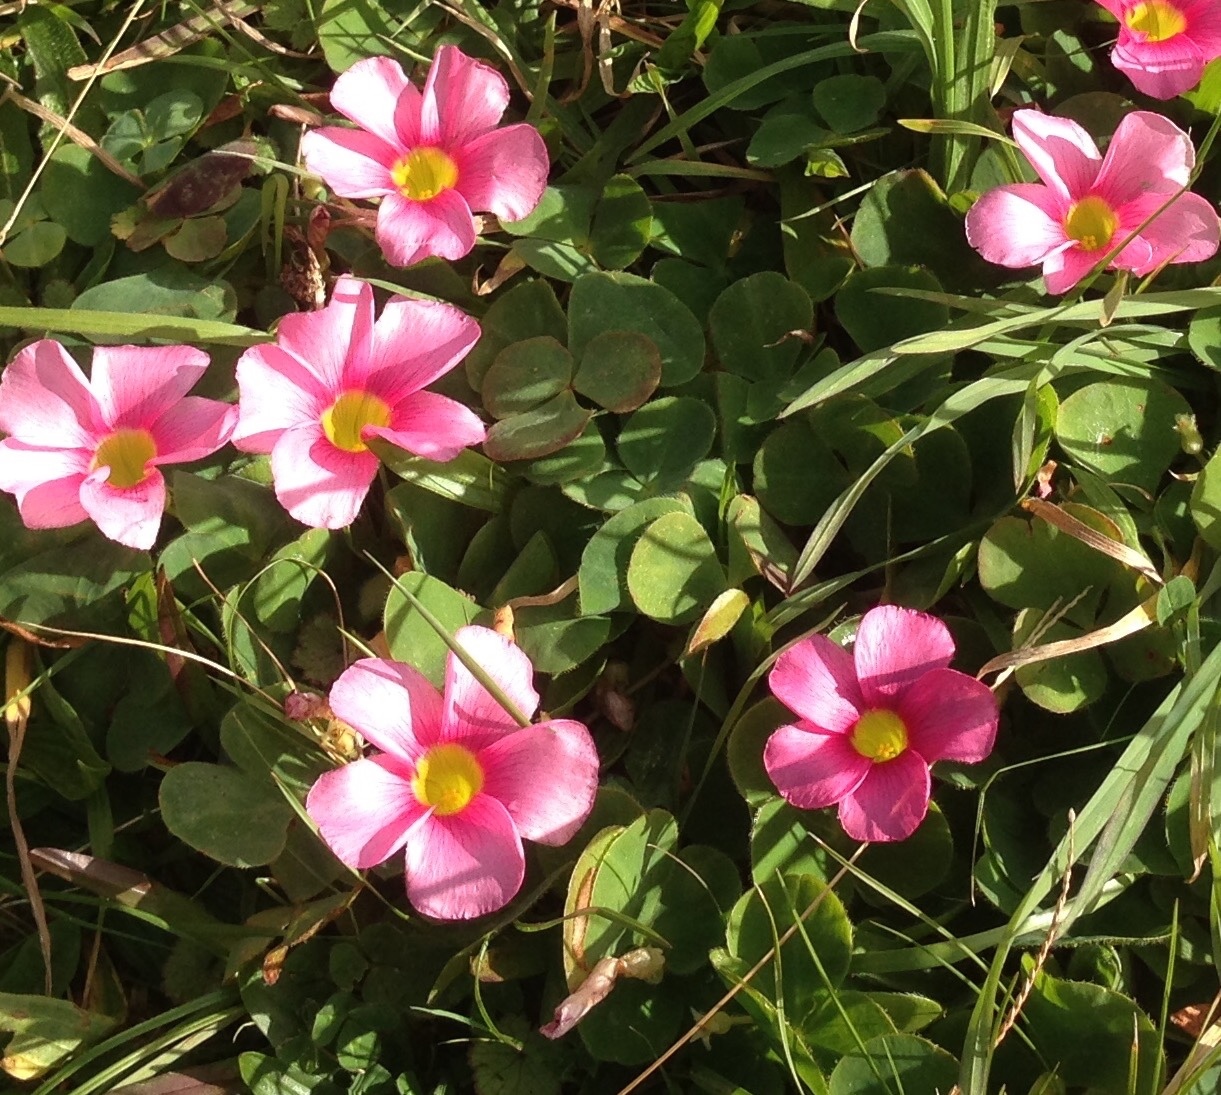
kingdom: Plantae
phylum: Tracheophyta
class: Magnoliopsida
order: Oxalidales
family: Oxalidaceae
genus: Oxalis
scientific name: Oxalis purpurea
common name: Purple woodsorrel
